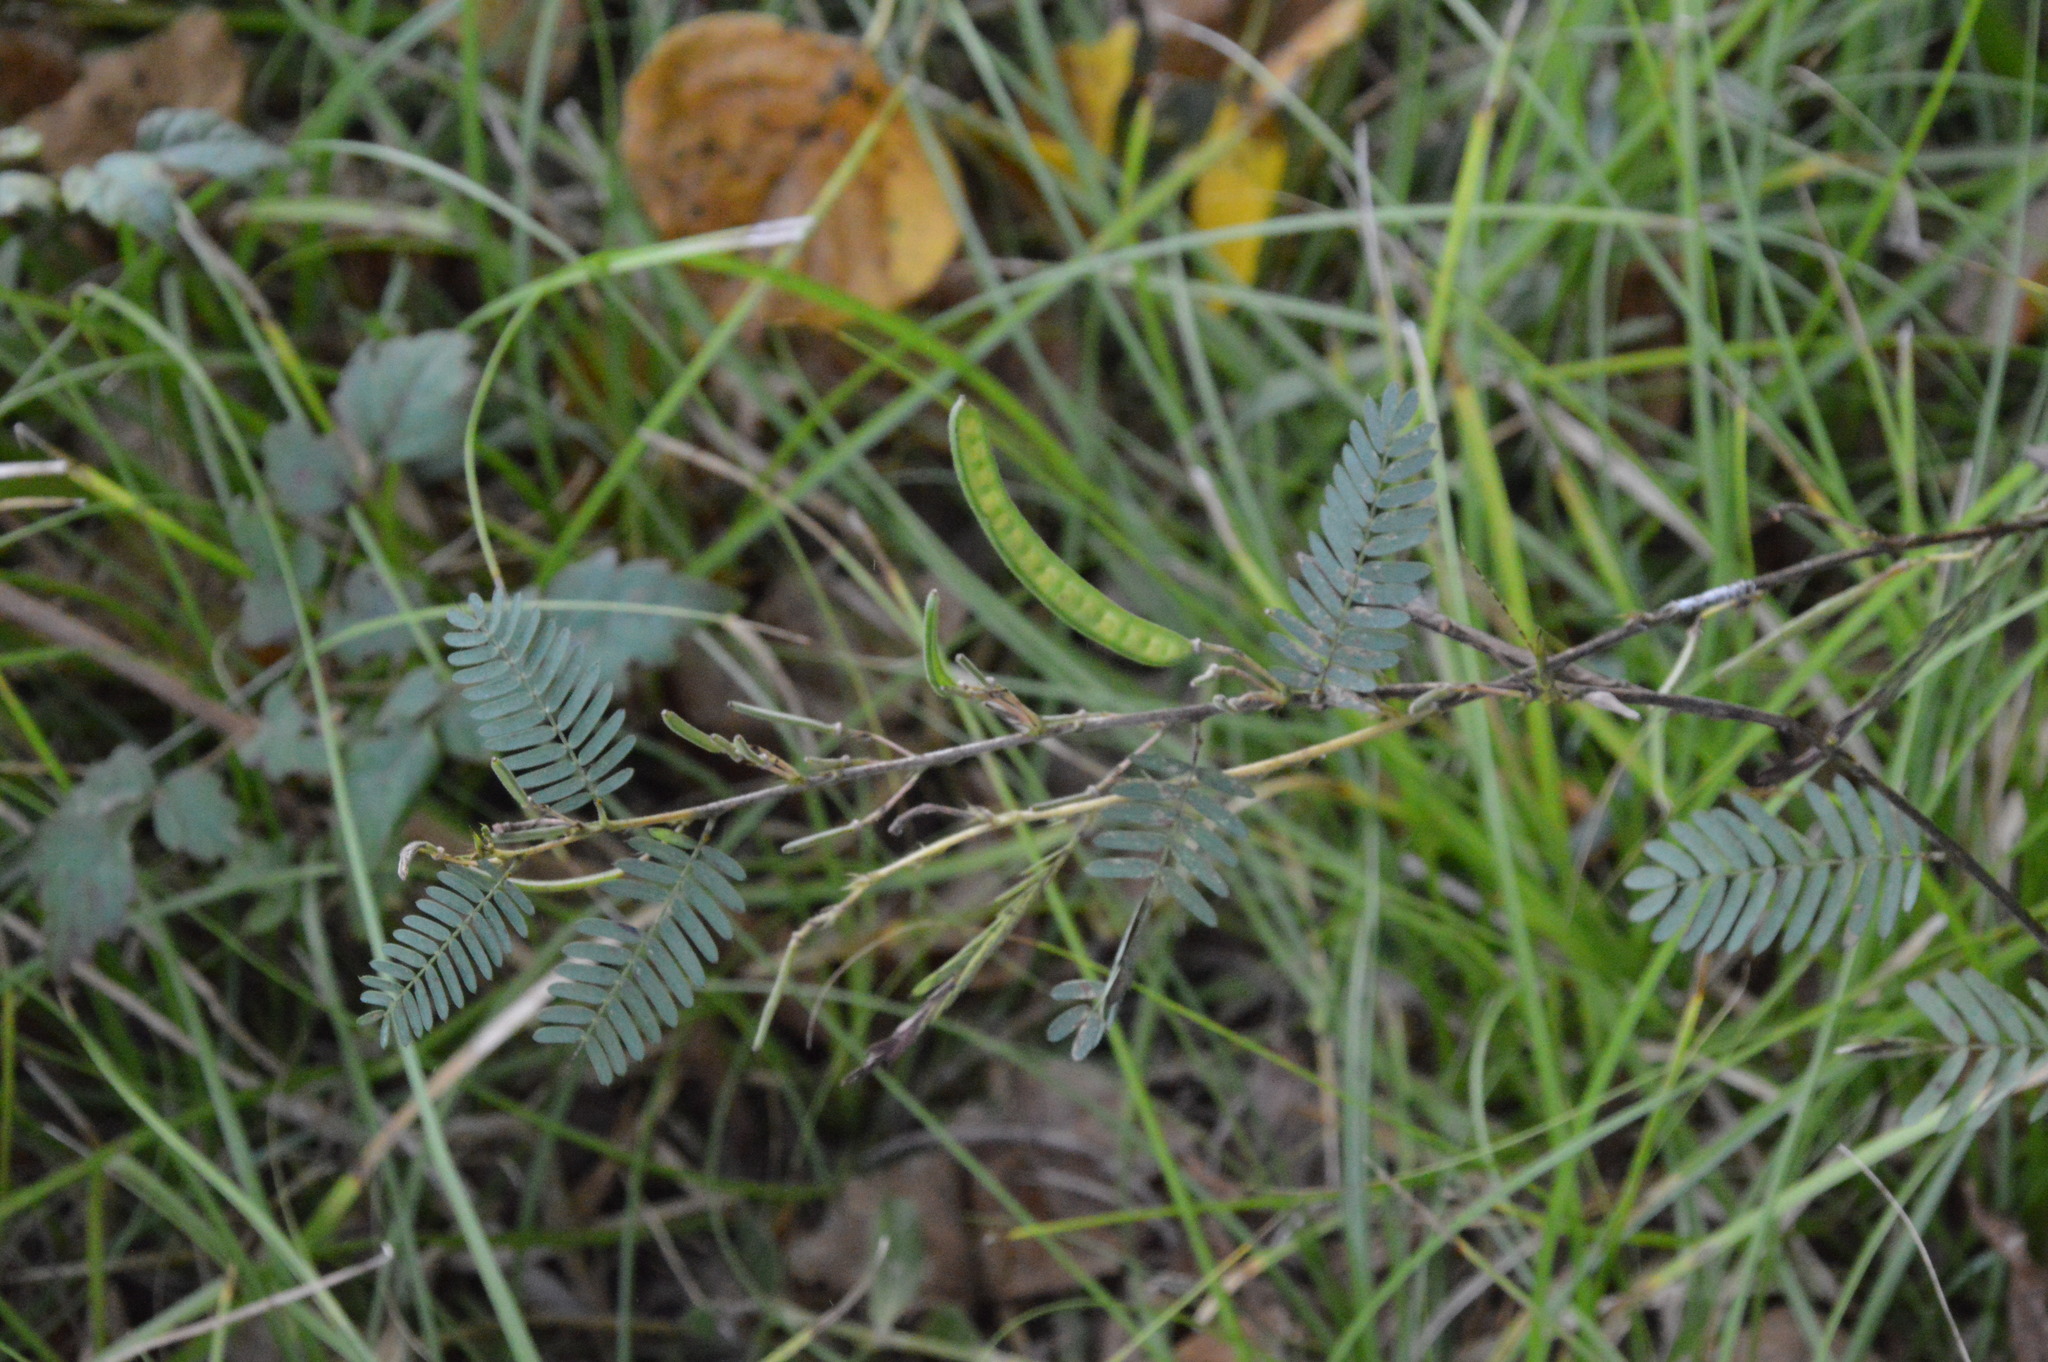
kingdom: Plantae
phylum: Tracheophyta
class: Magnoliopsida
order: Fabales
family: Fabaceae
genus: Chamaecrista
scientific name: Chamaecrista fasciculata
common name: Golden cassia
